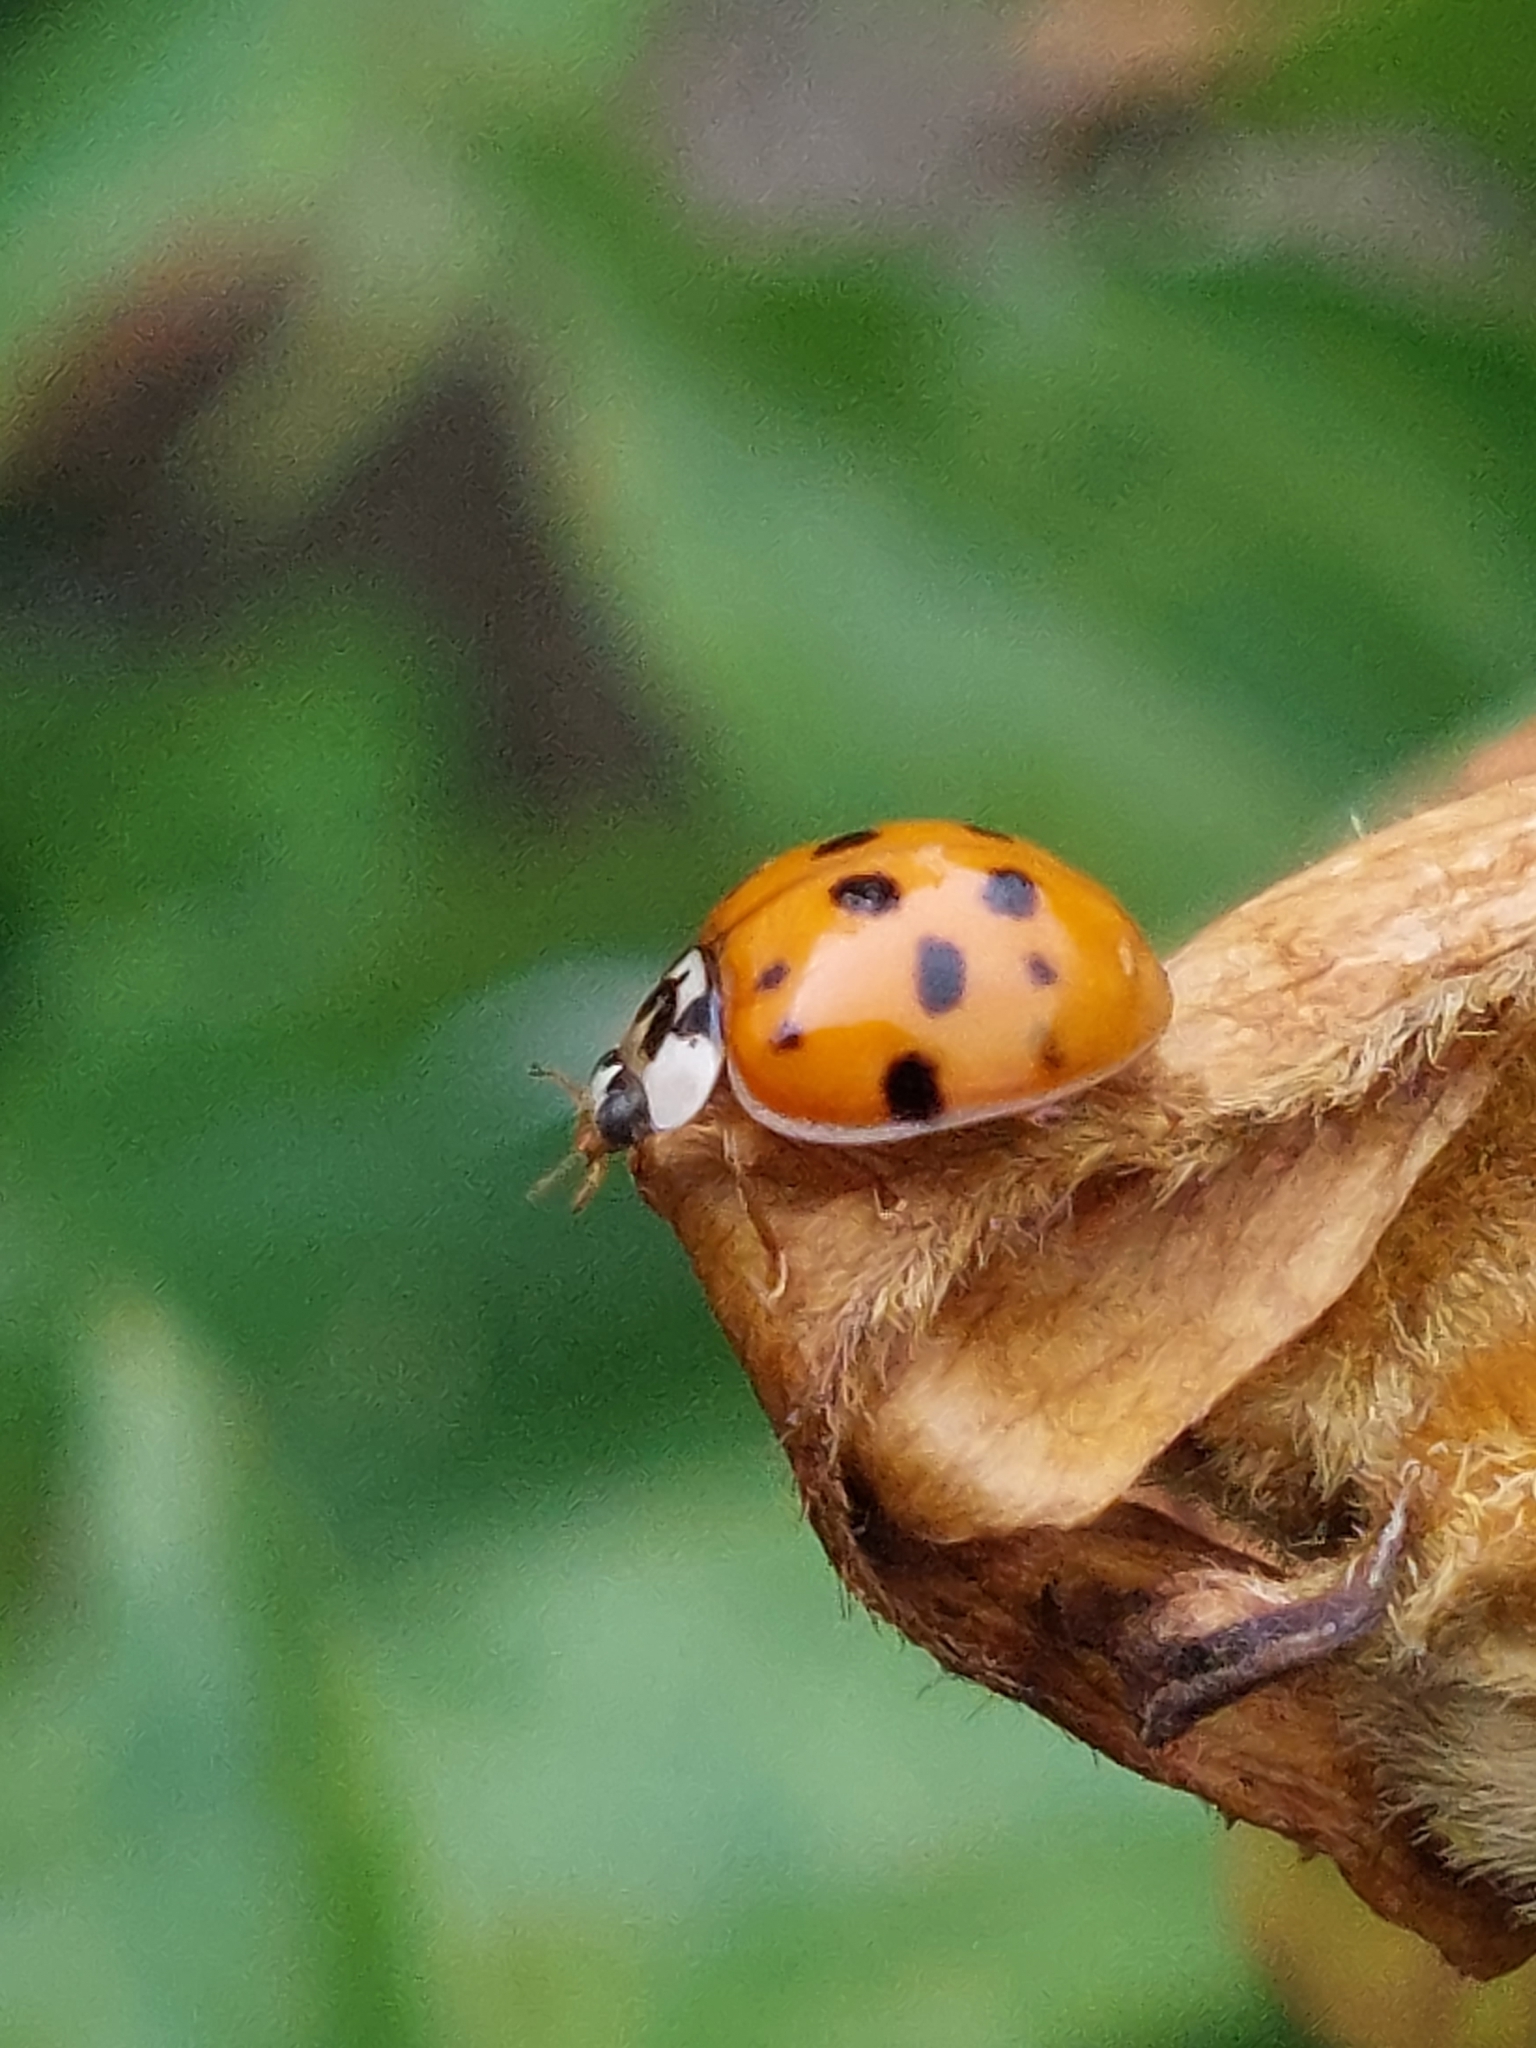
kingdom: Animalia
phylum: Arthropoda
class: Insecta
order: Coleoptera
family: Coccinellidae
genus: Harmonia
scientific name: Harmonia axyridis
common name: Harlequin ladybird
